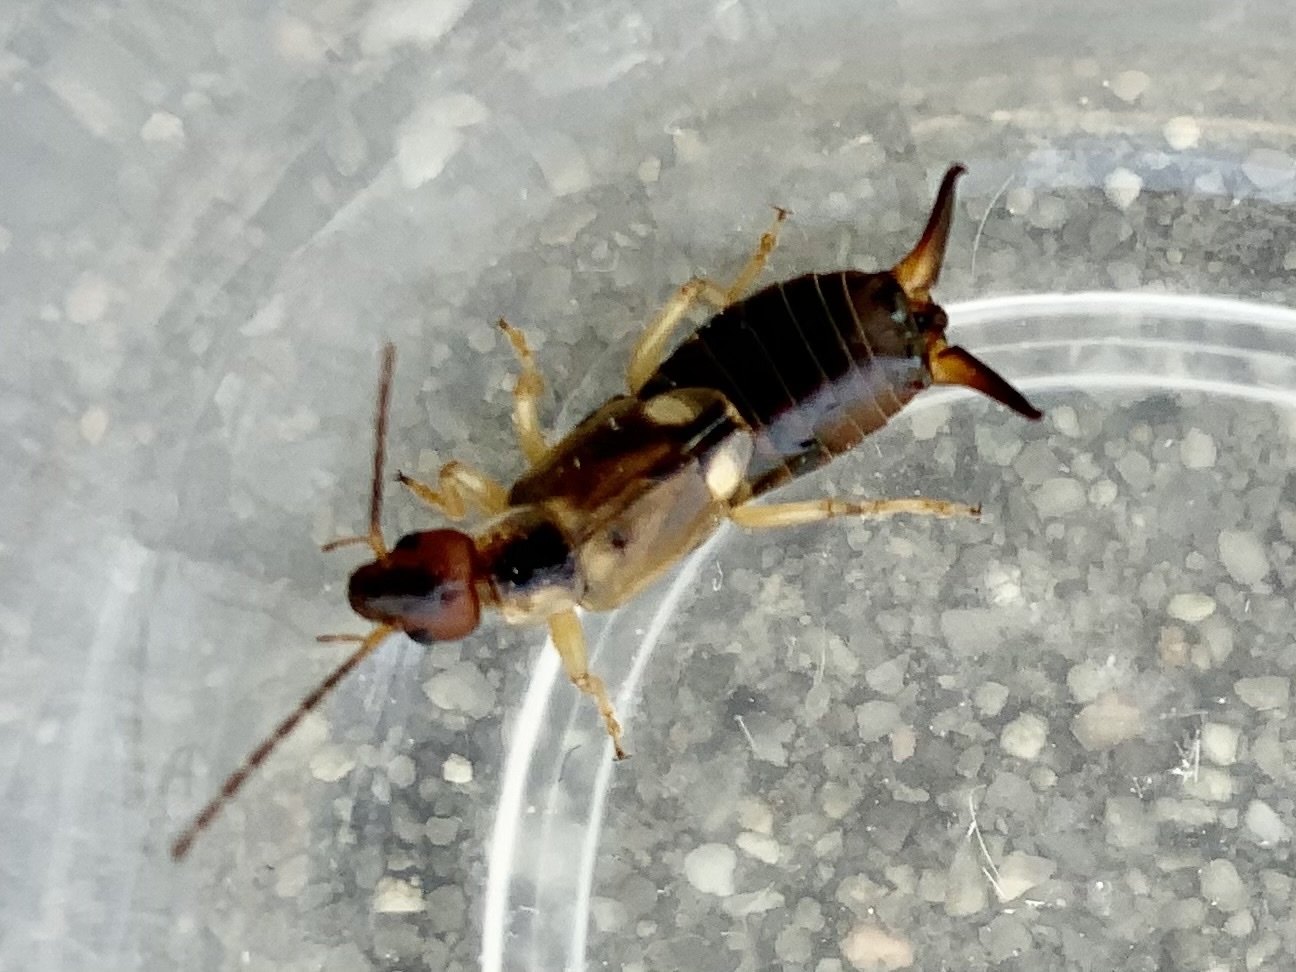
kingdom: Animalia
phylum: Arthropoda
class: Insecta
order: Dermaptera
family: Forficulidae
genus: Forficula
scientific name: Forficula
